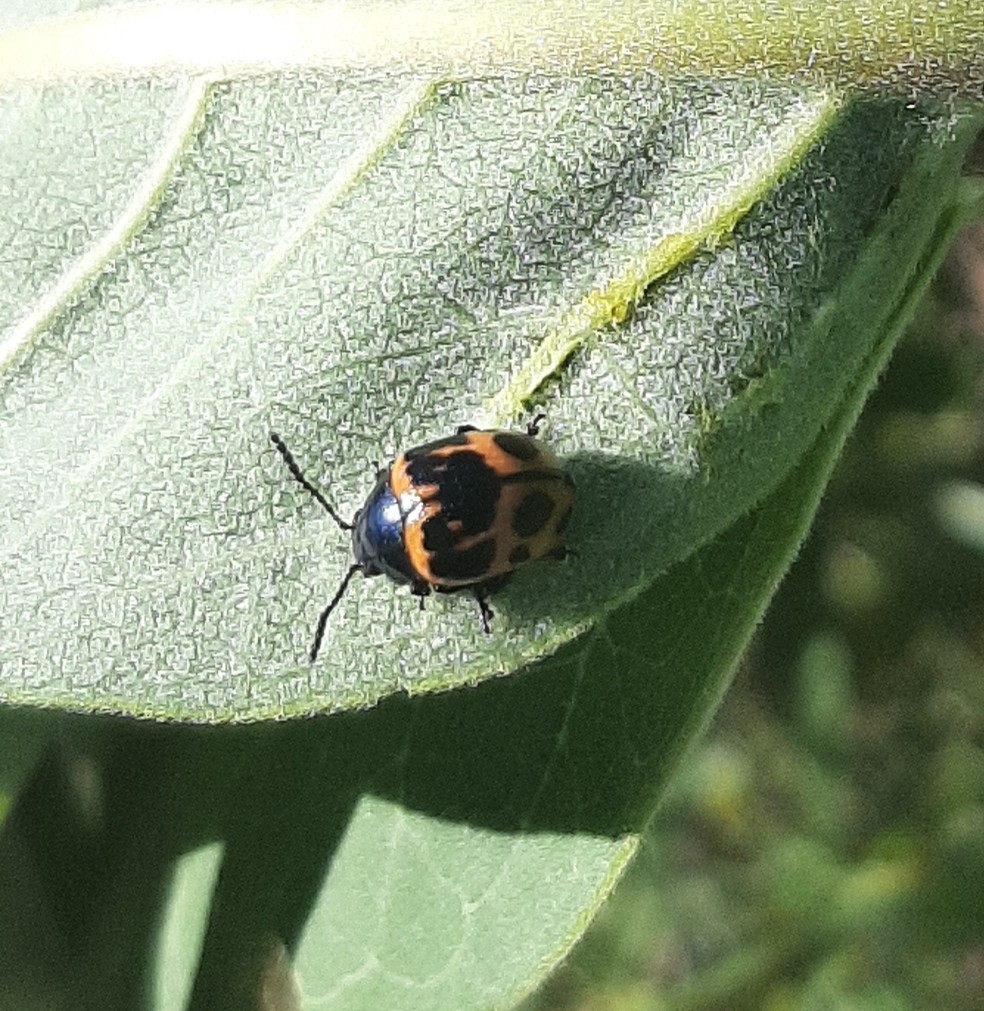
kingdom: Animalia
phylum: Arthropoda
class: Insecta
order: Coleoptera
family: Chrysomelidae
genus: Labidomera
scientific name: Labidomera clivicollis
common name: Swamp milkweed leaf beetle
